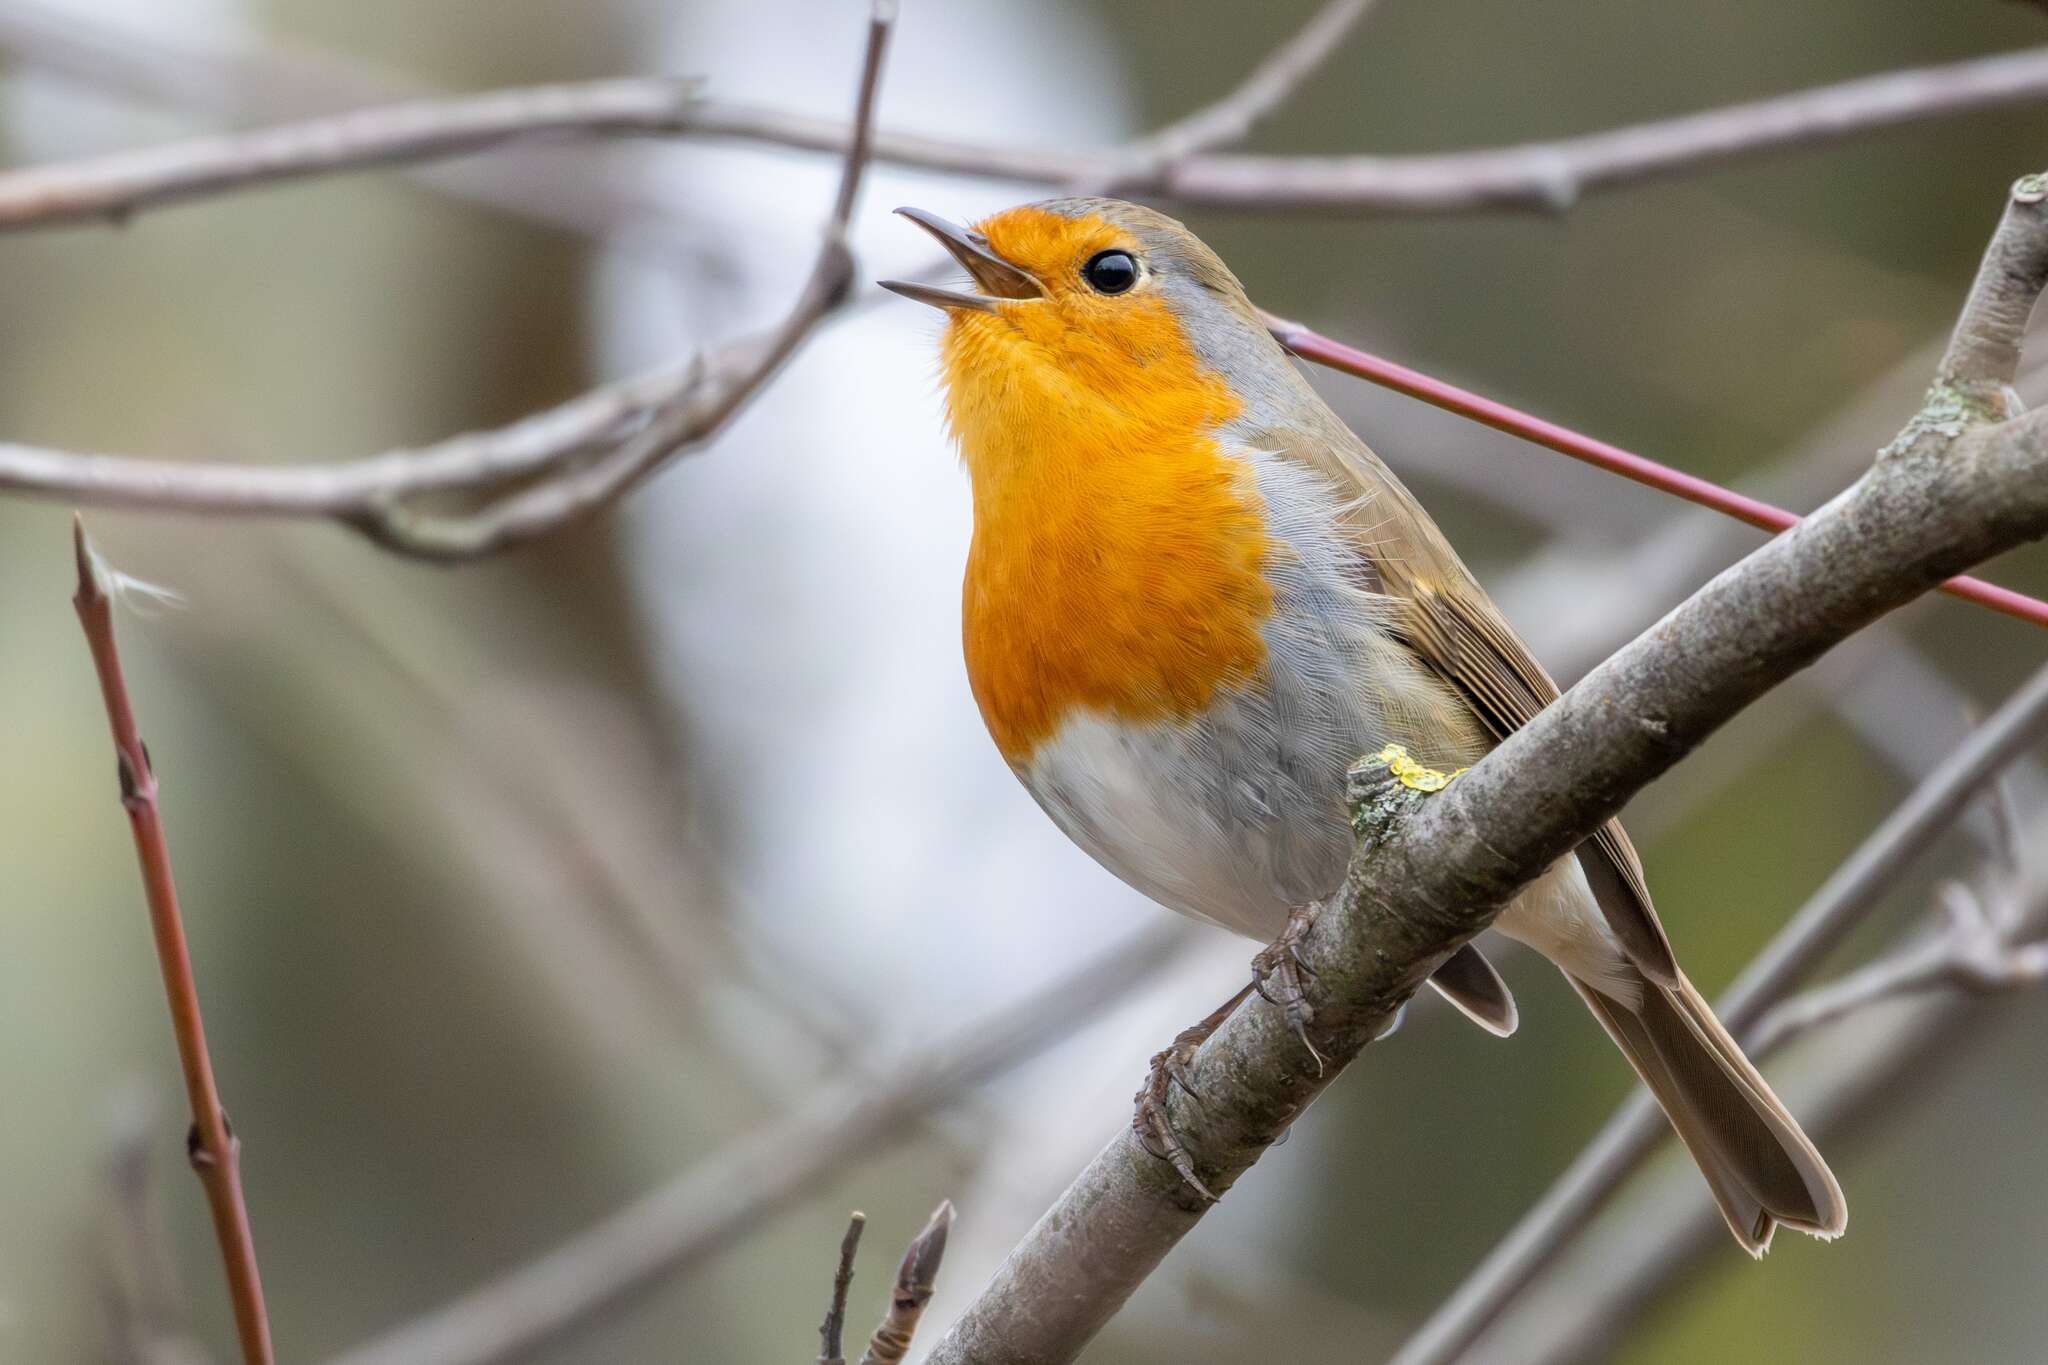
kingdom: Animalia
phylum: Chordata
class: Aves
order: Passeriformes
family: Muscicapidae
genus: Erithacus
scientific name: Erithacus rubecula
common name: European robin
